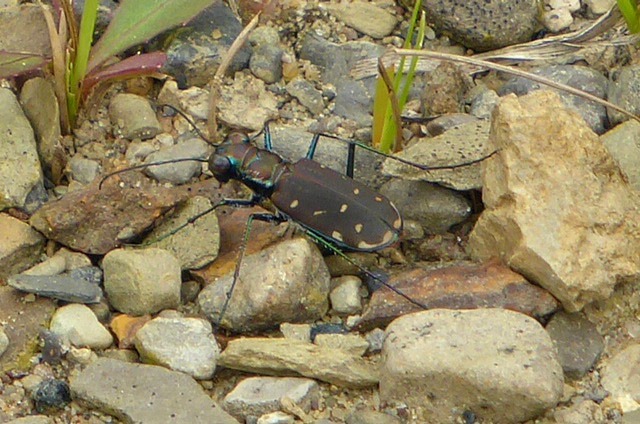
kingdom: Animalia
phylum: Arthropoda
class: Insecta
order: Coleoptera
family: Carabidae
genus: Cicindela
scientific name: Cicindela rufiventris
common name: Eastern red-bellied tiger beetle
